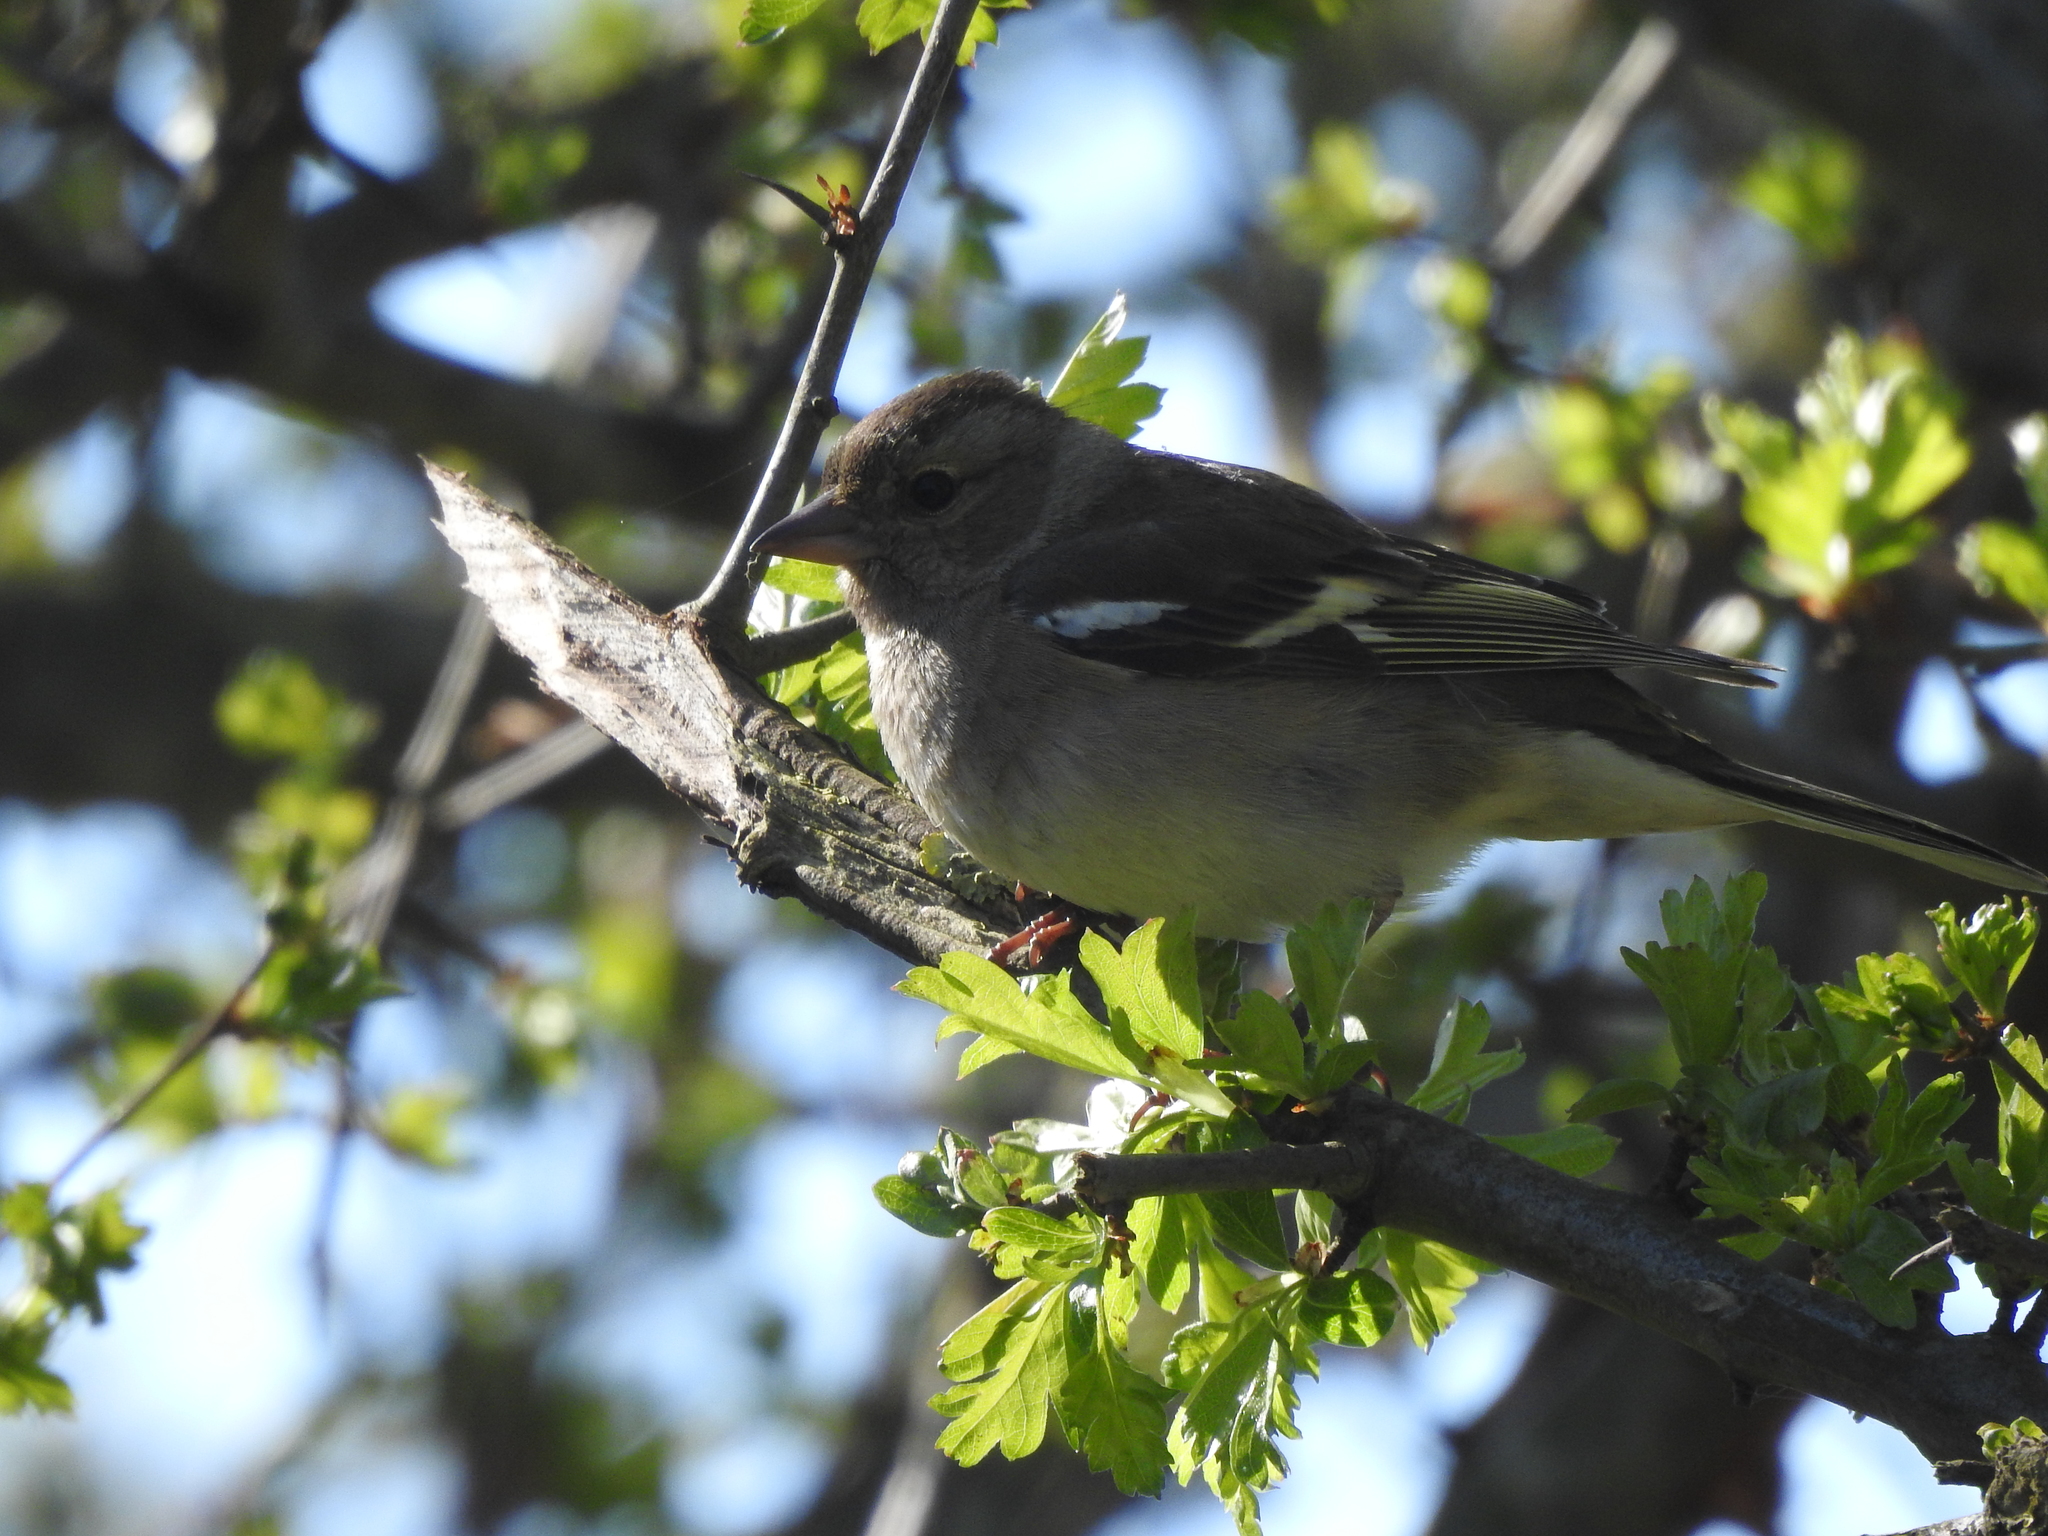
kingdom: Animalia
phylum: Chordata
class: Aves
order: Passeriformes
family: Fringillidae
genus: Fringilla
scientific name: Fringilla coelebs
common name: Common chaffinch
